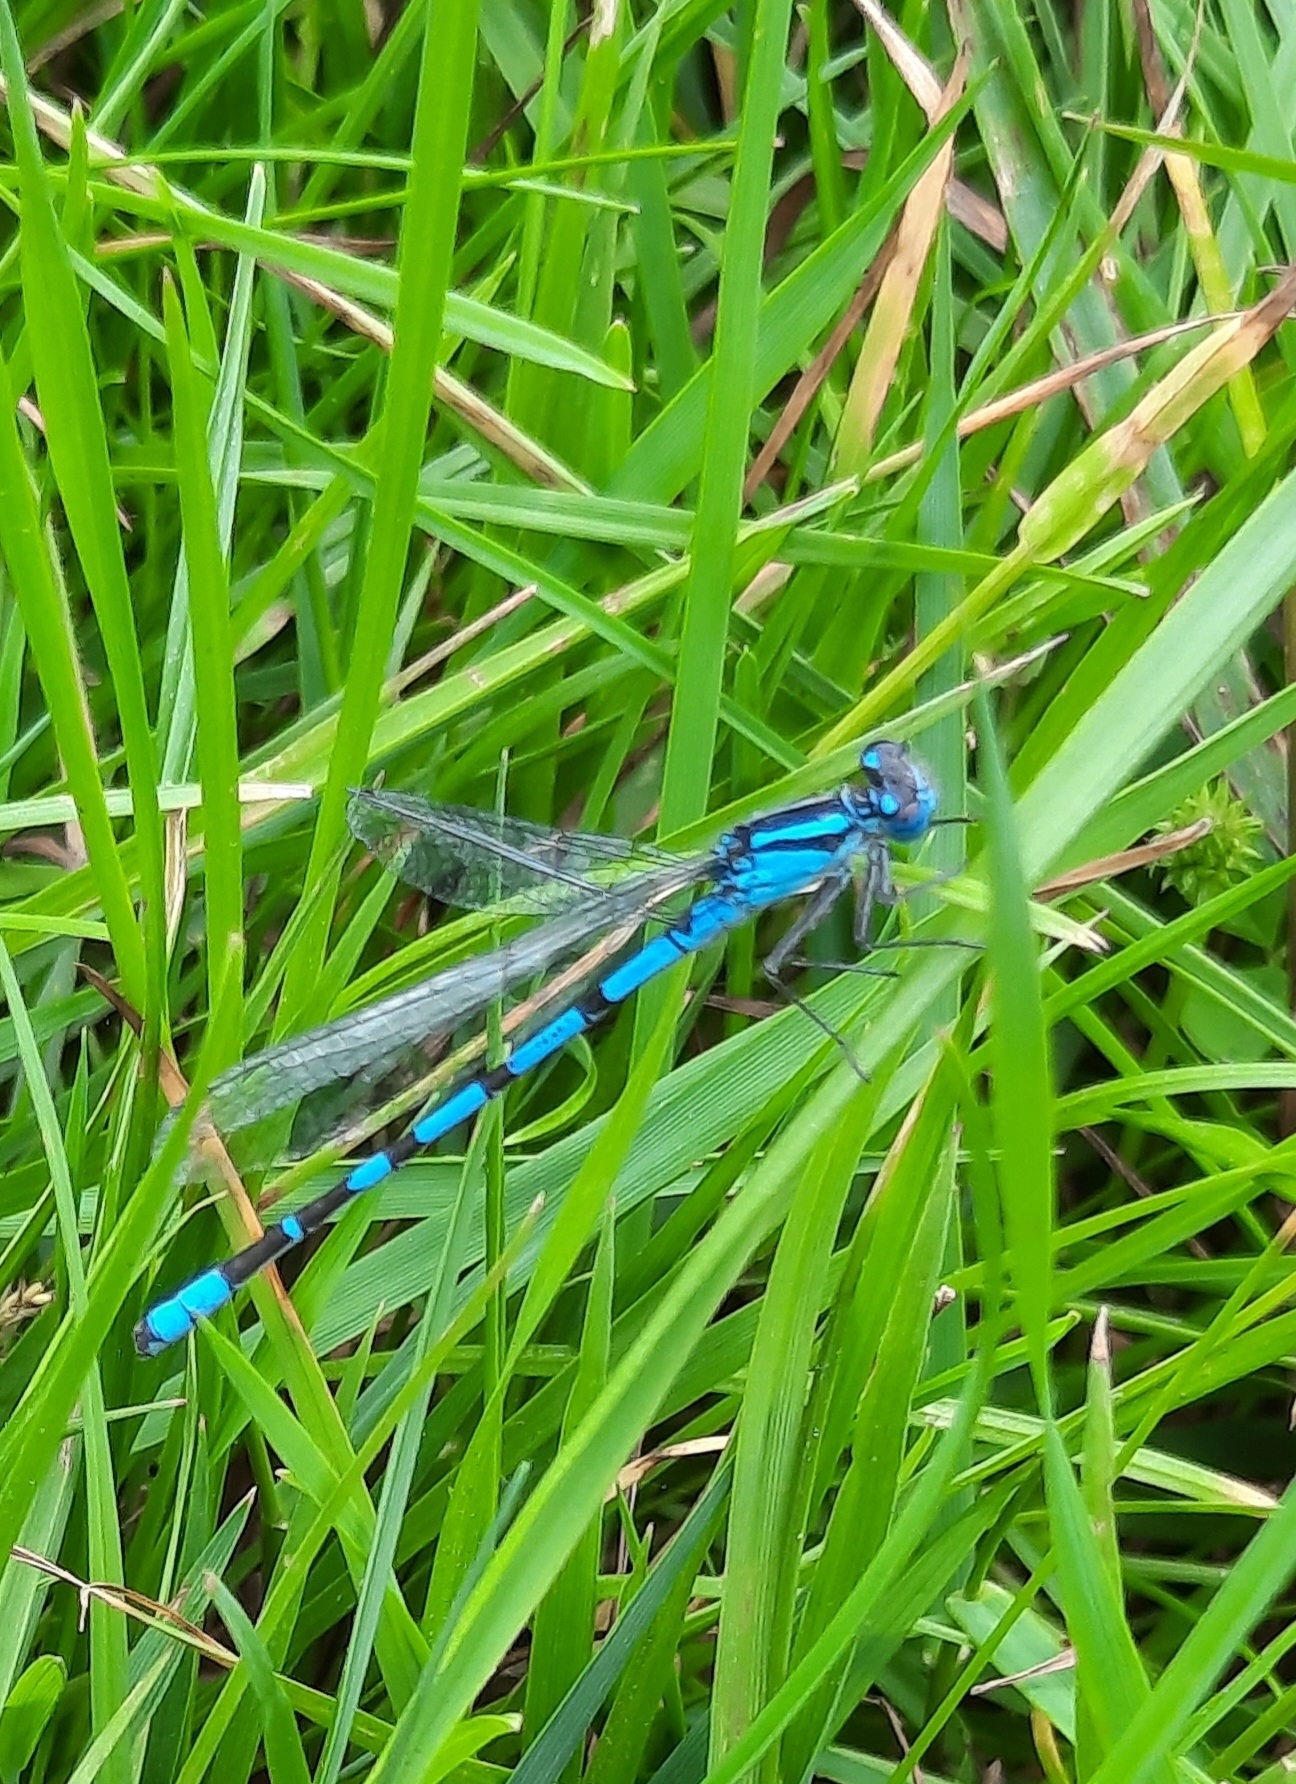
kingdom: Animalia
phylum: Arthropoda
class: Insecta
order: Odonata
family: Coenagrionidae
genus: Enallagma
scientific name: Enallagma cyathigerum
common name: Common blue damselfly
